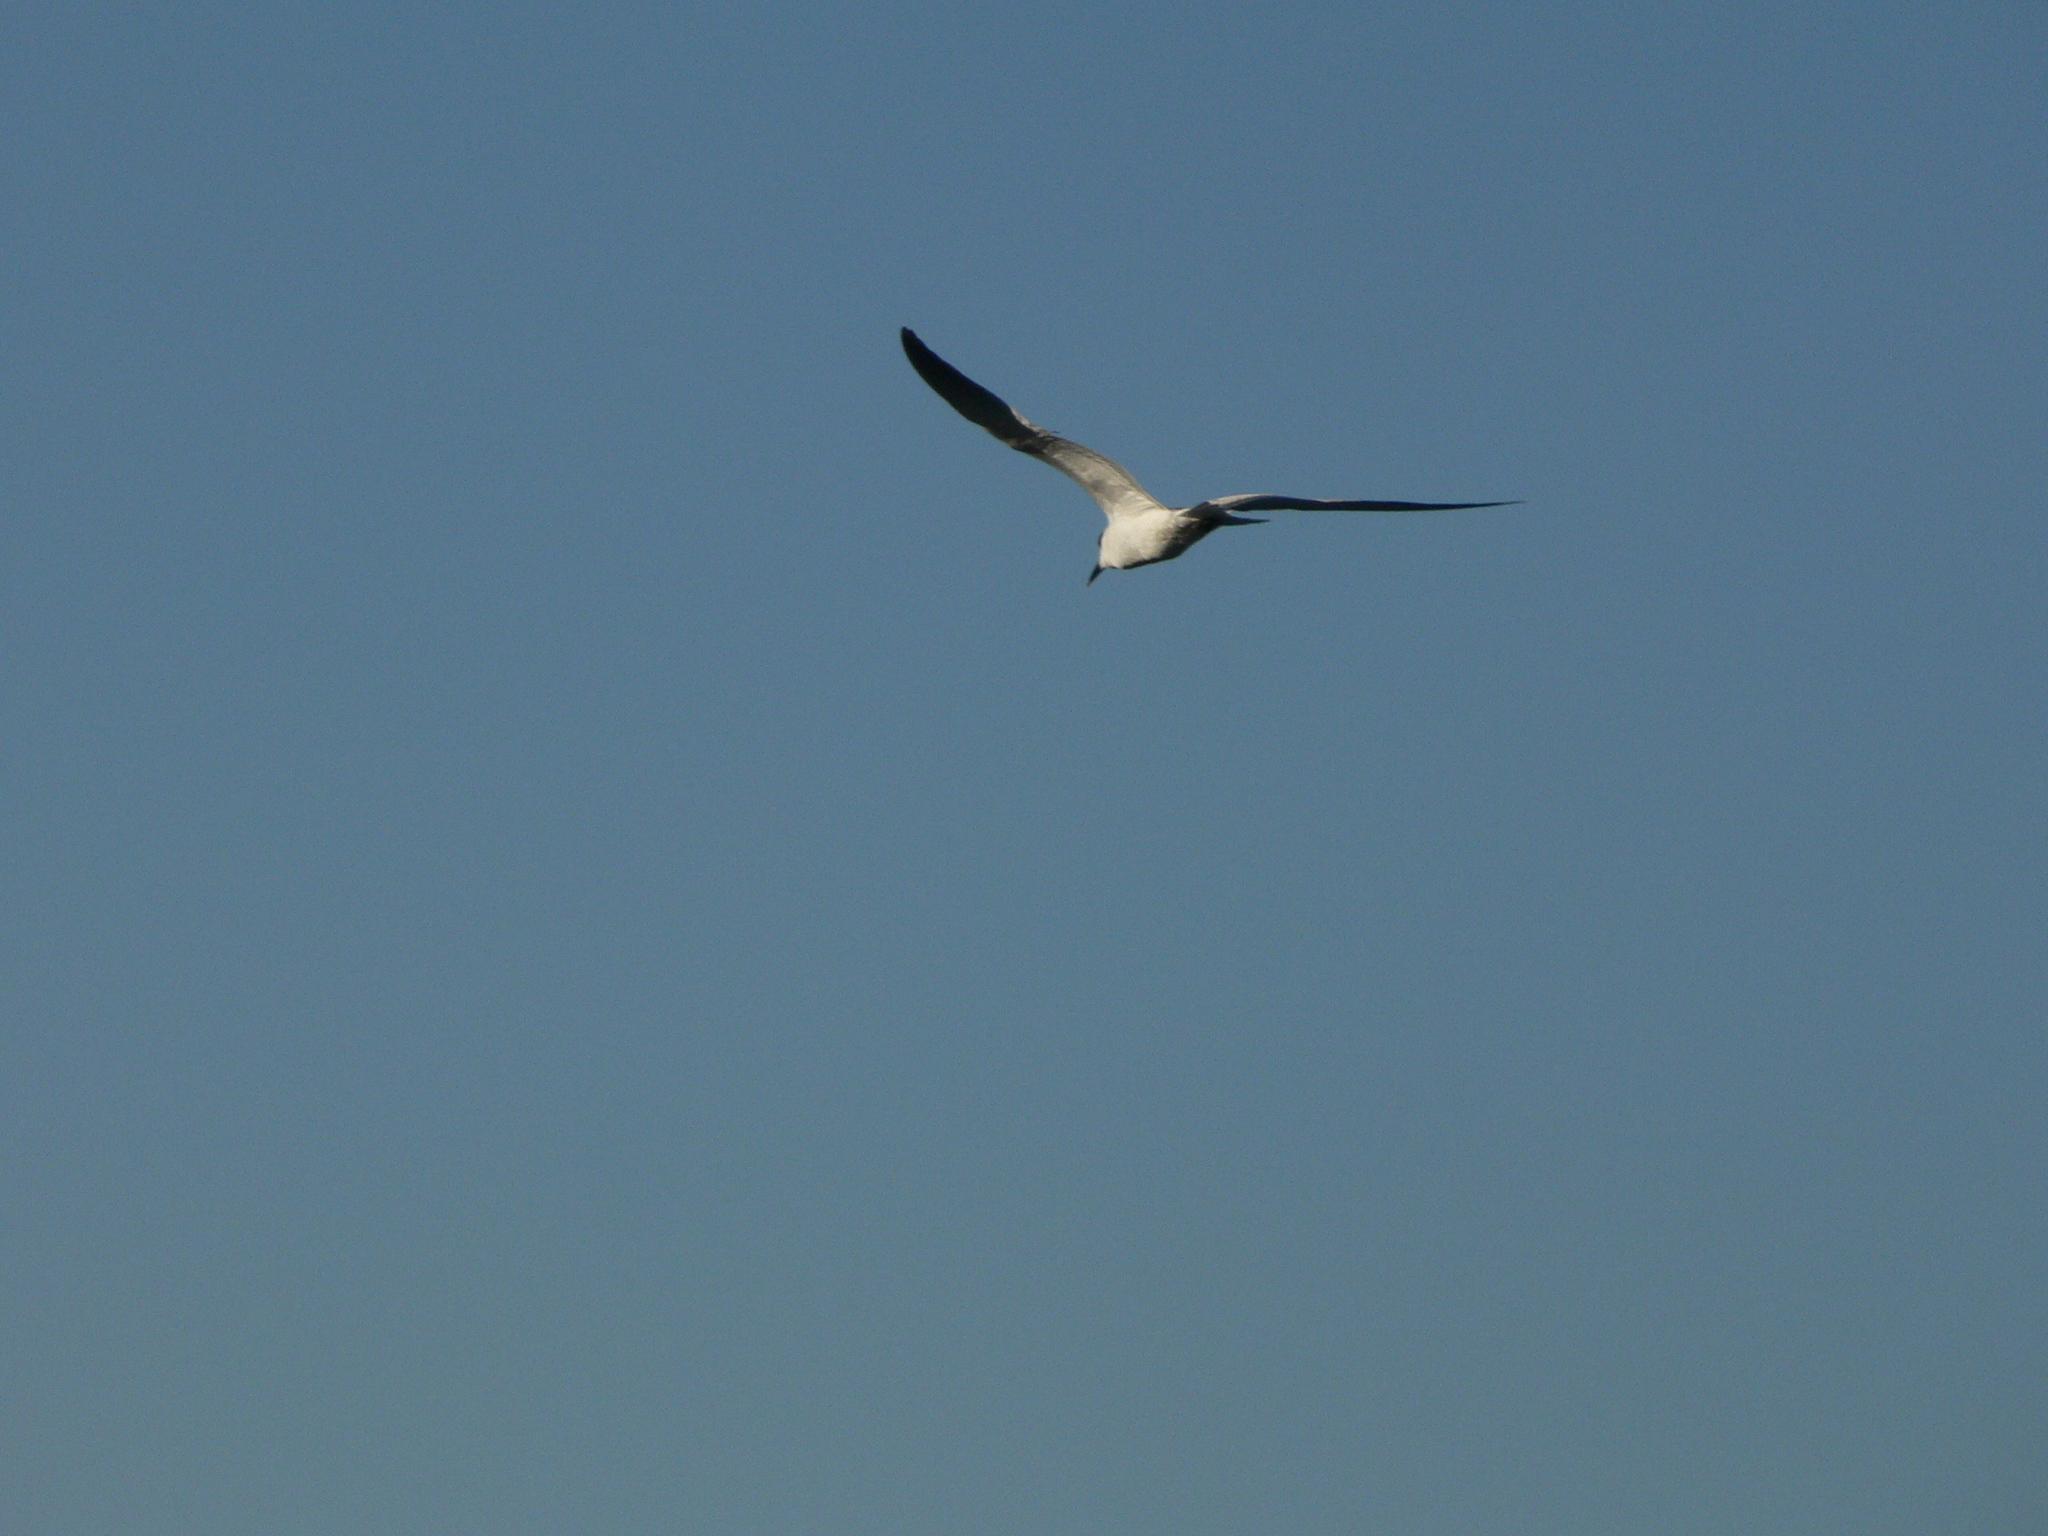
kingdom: Animalia
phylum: Chordata
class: Aves
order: Charadriiformes
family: Laridae
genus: Gelochelidon
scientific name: Gelochelidon macrotarsa
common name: Australian tern
